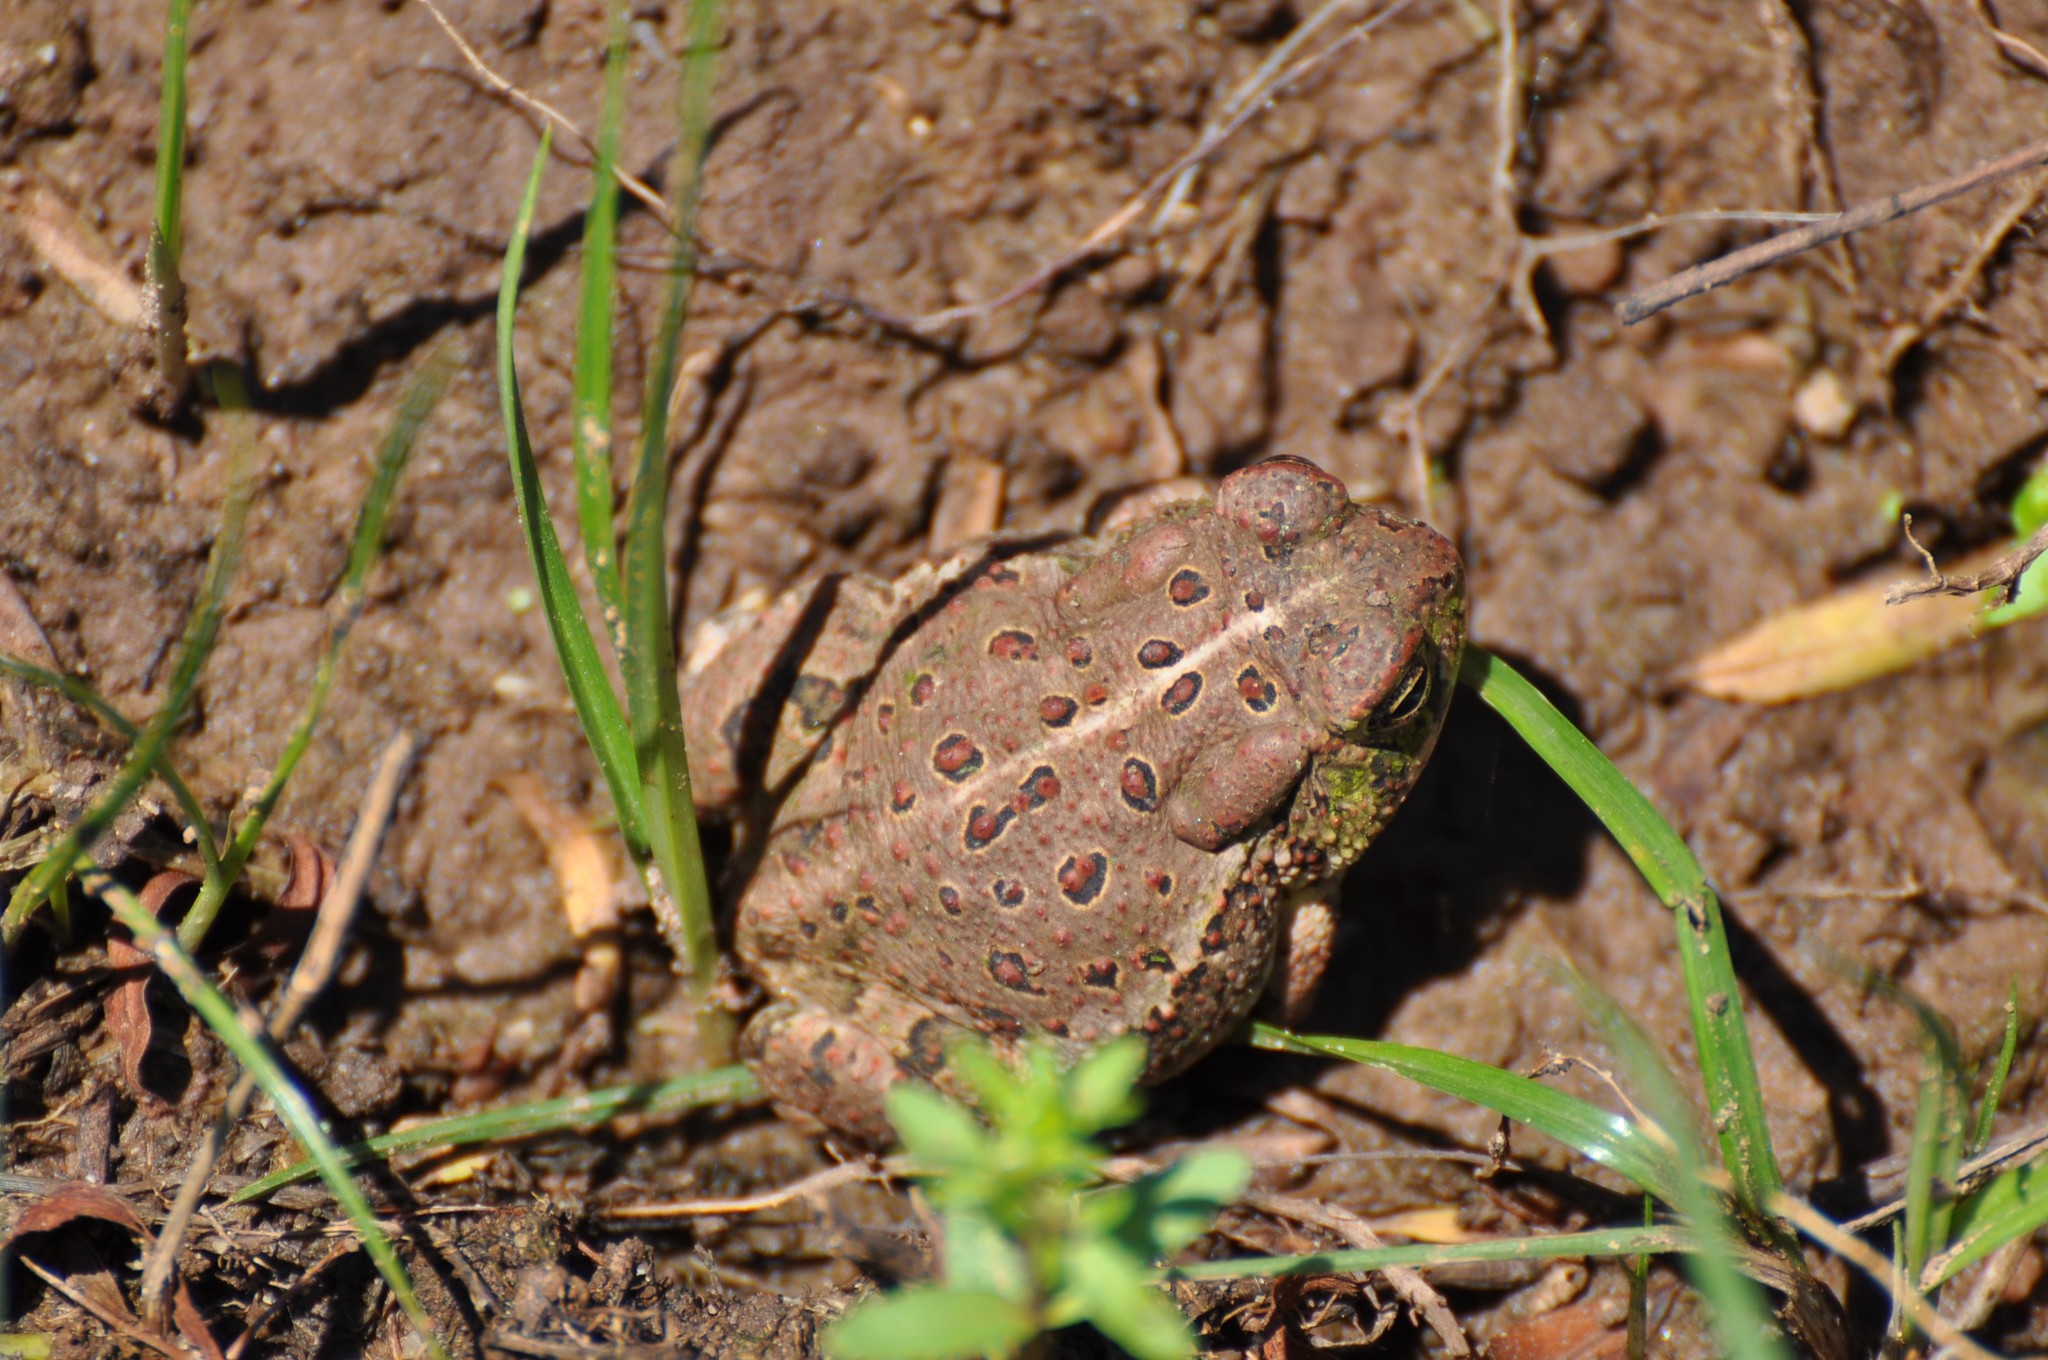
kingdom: Animalia
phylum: Chordata
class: Amphibia
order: Anura
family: Bufonidae
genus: Anaxyrus
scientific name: Anaxyrus woodhousii
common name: Woodhouse's toad
